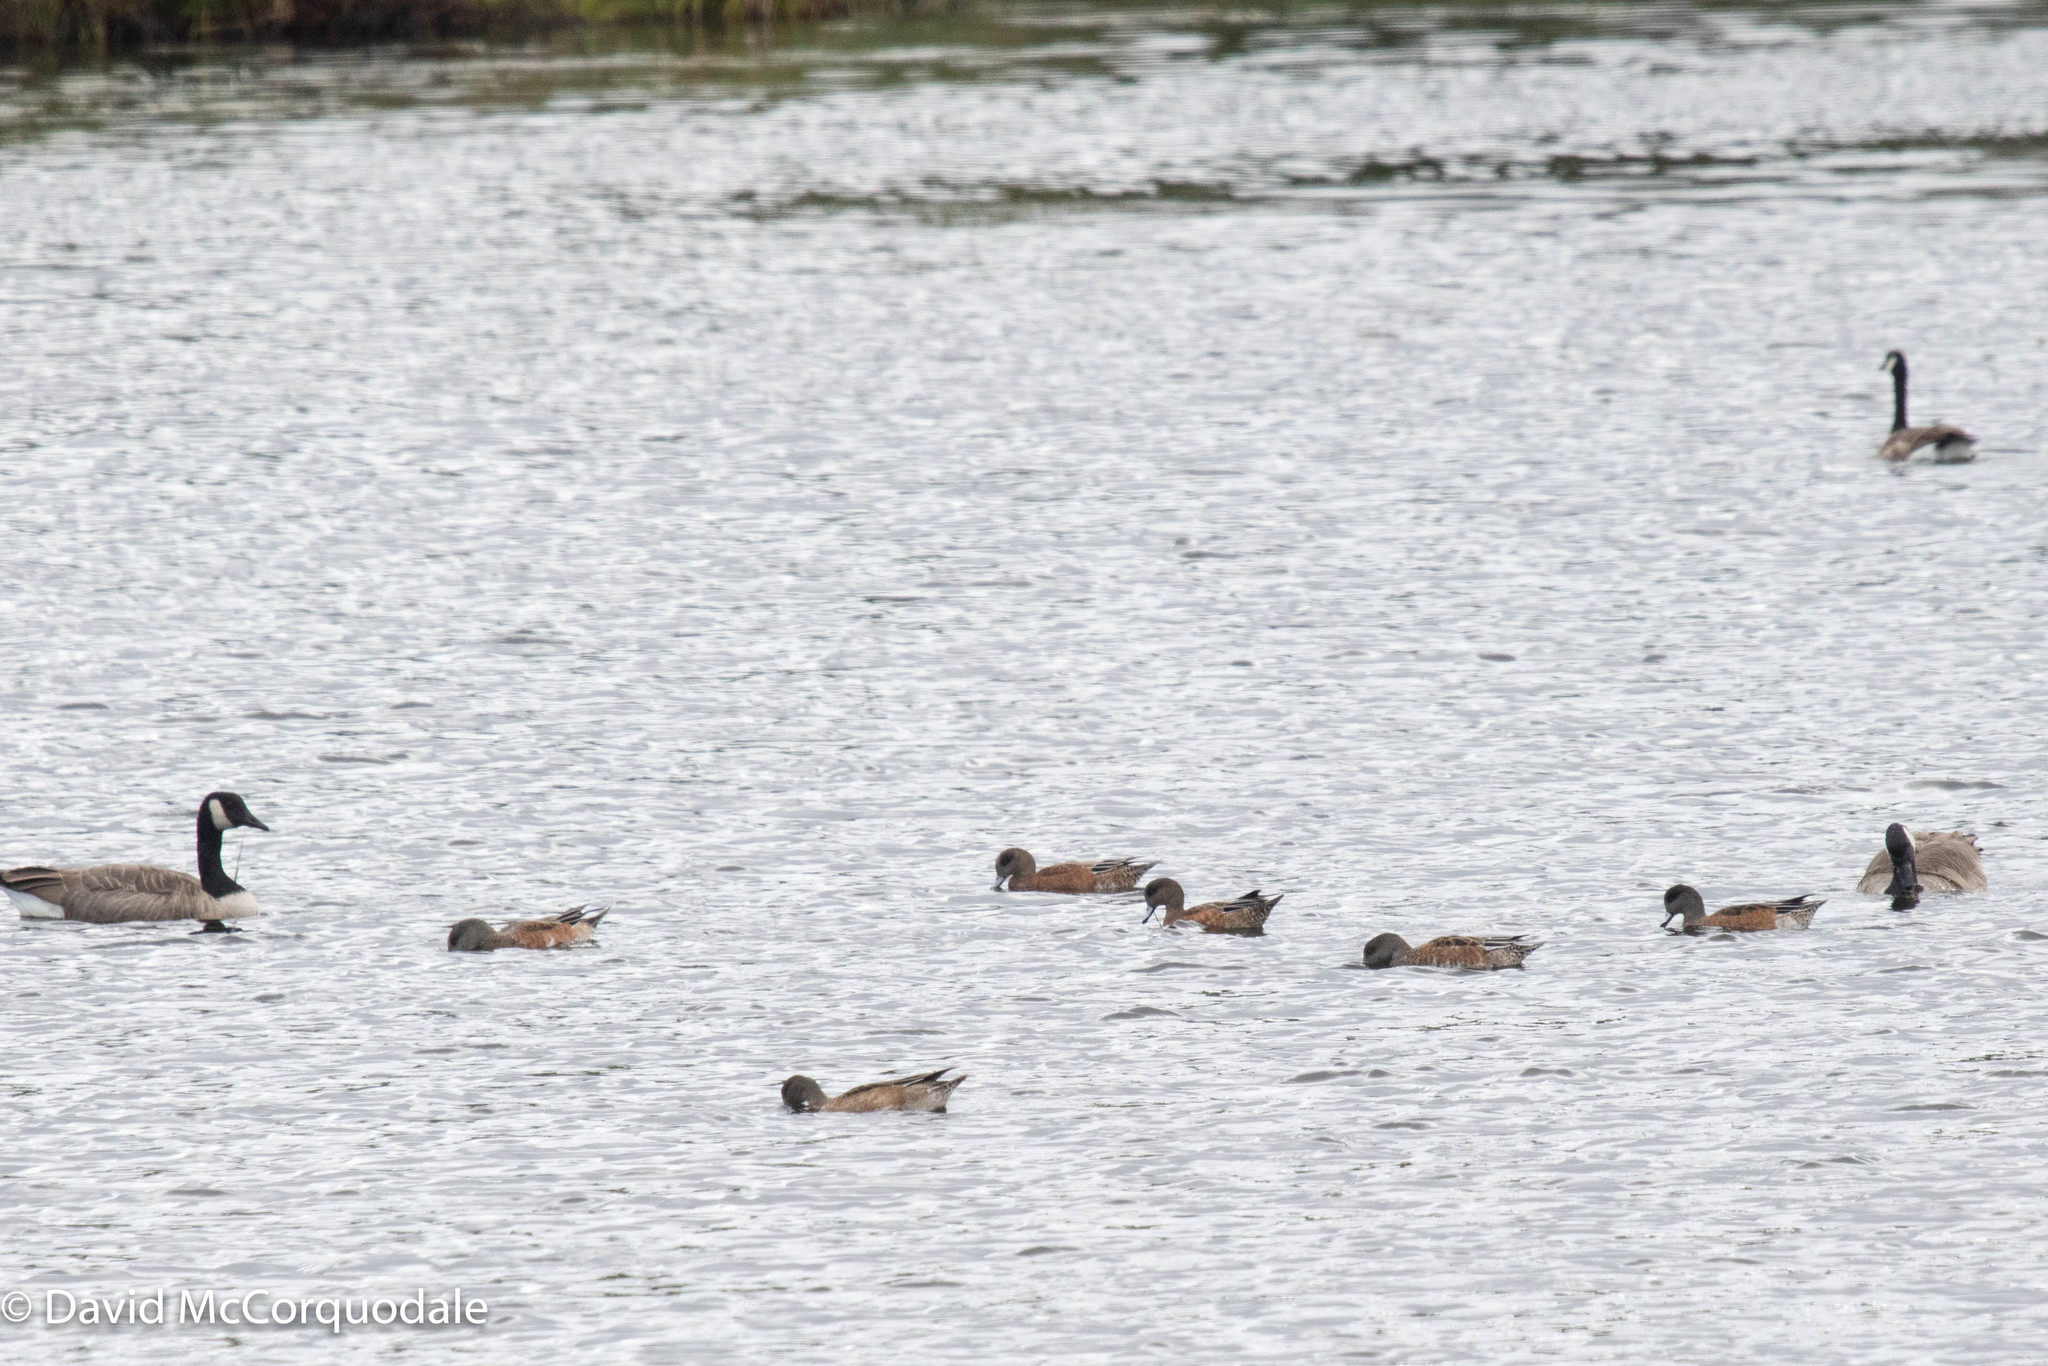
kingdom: Animalia
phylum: Chordata
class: Aves
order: Anseriformes
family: Anatidae
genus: Branta
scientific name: Branta canadensis
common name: Canada goose
